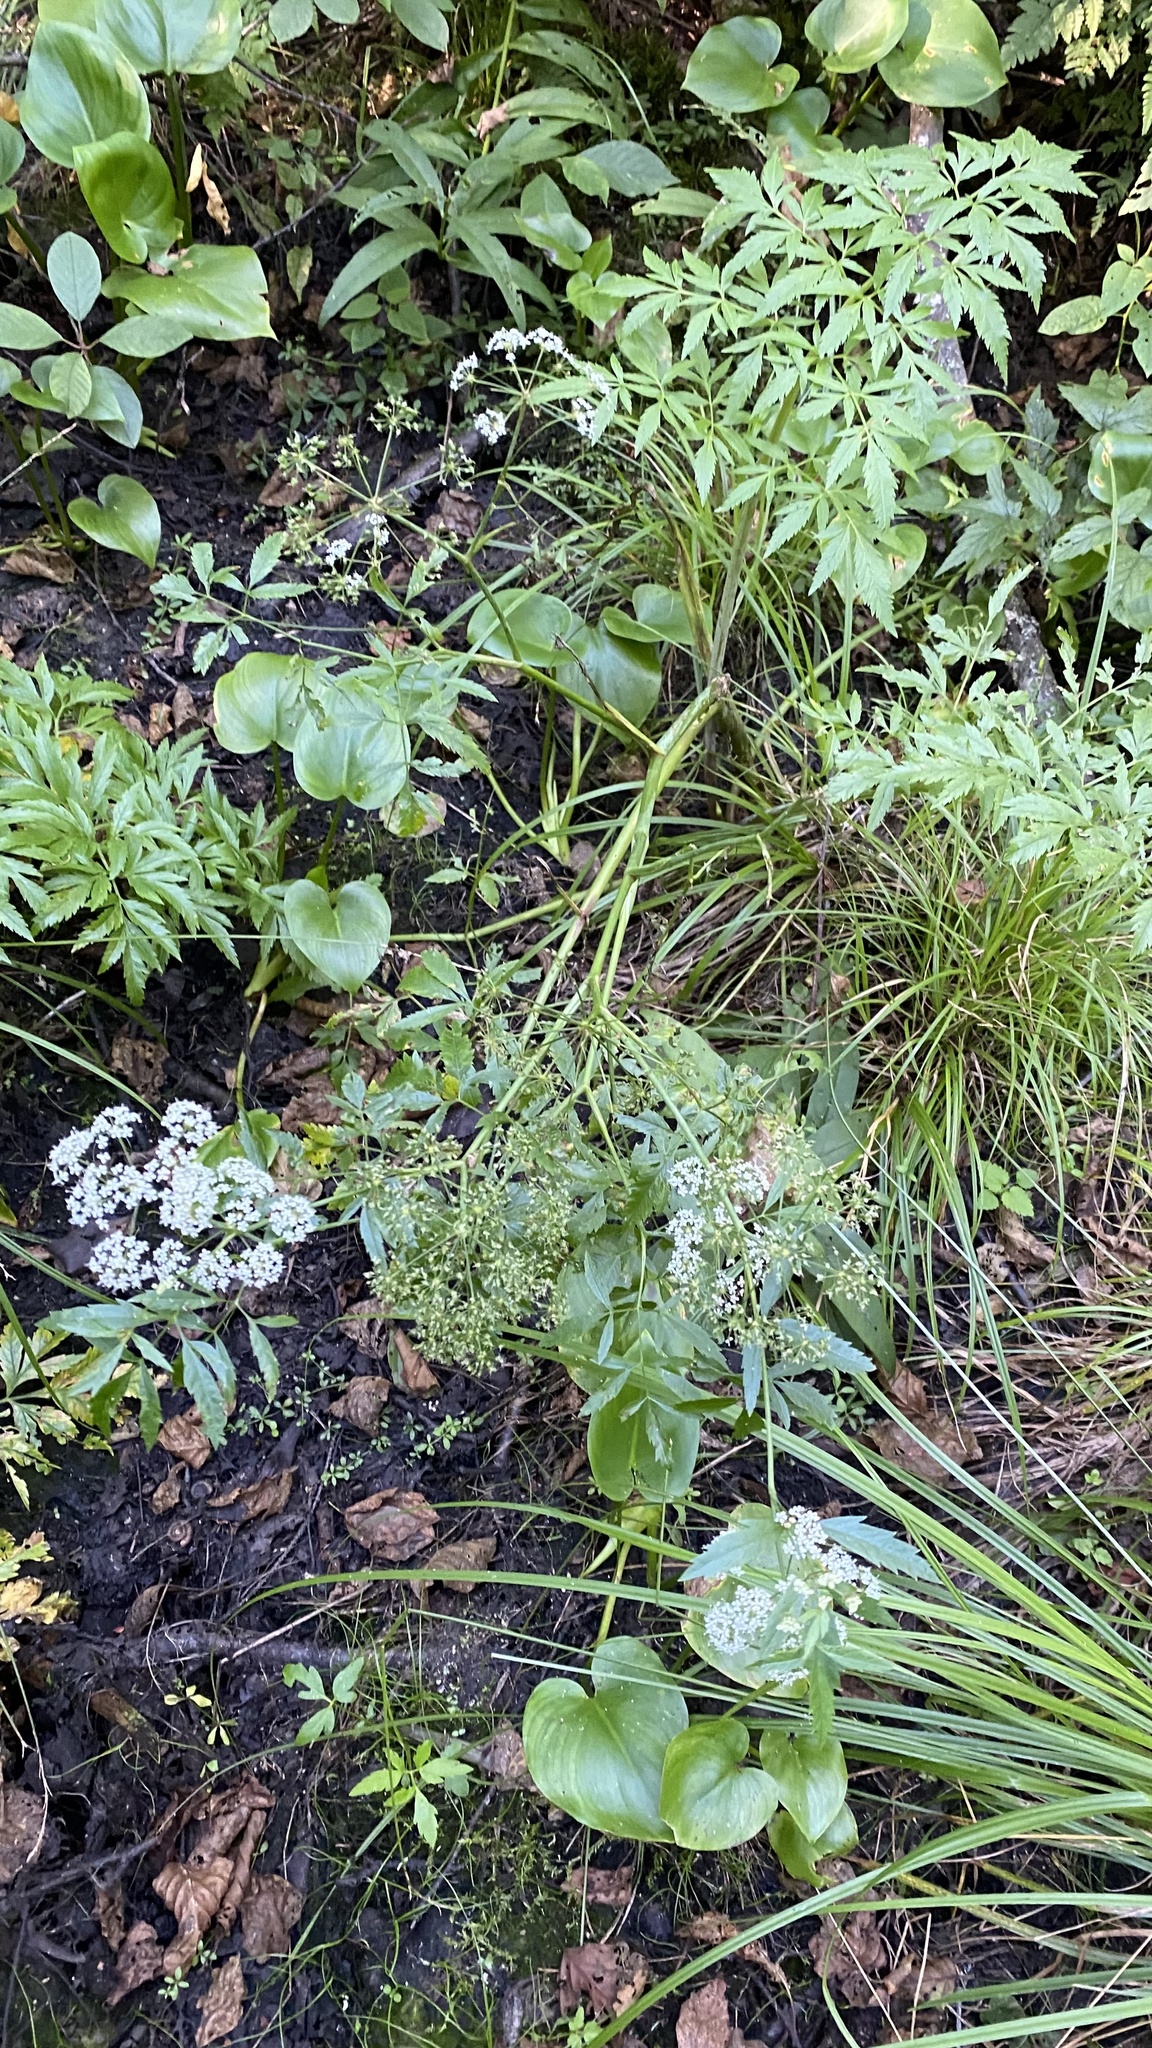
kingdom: Plantae
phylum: Tracheophyta
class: Magnoliopsida
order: Apiales
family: Apiaceae
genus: Cicuta
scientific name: Cicuta virosa
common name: Cowbane
